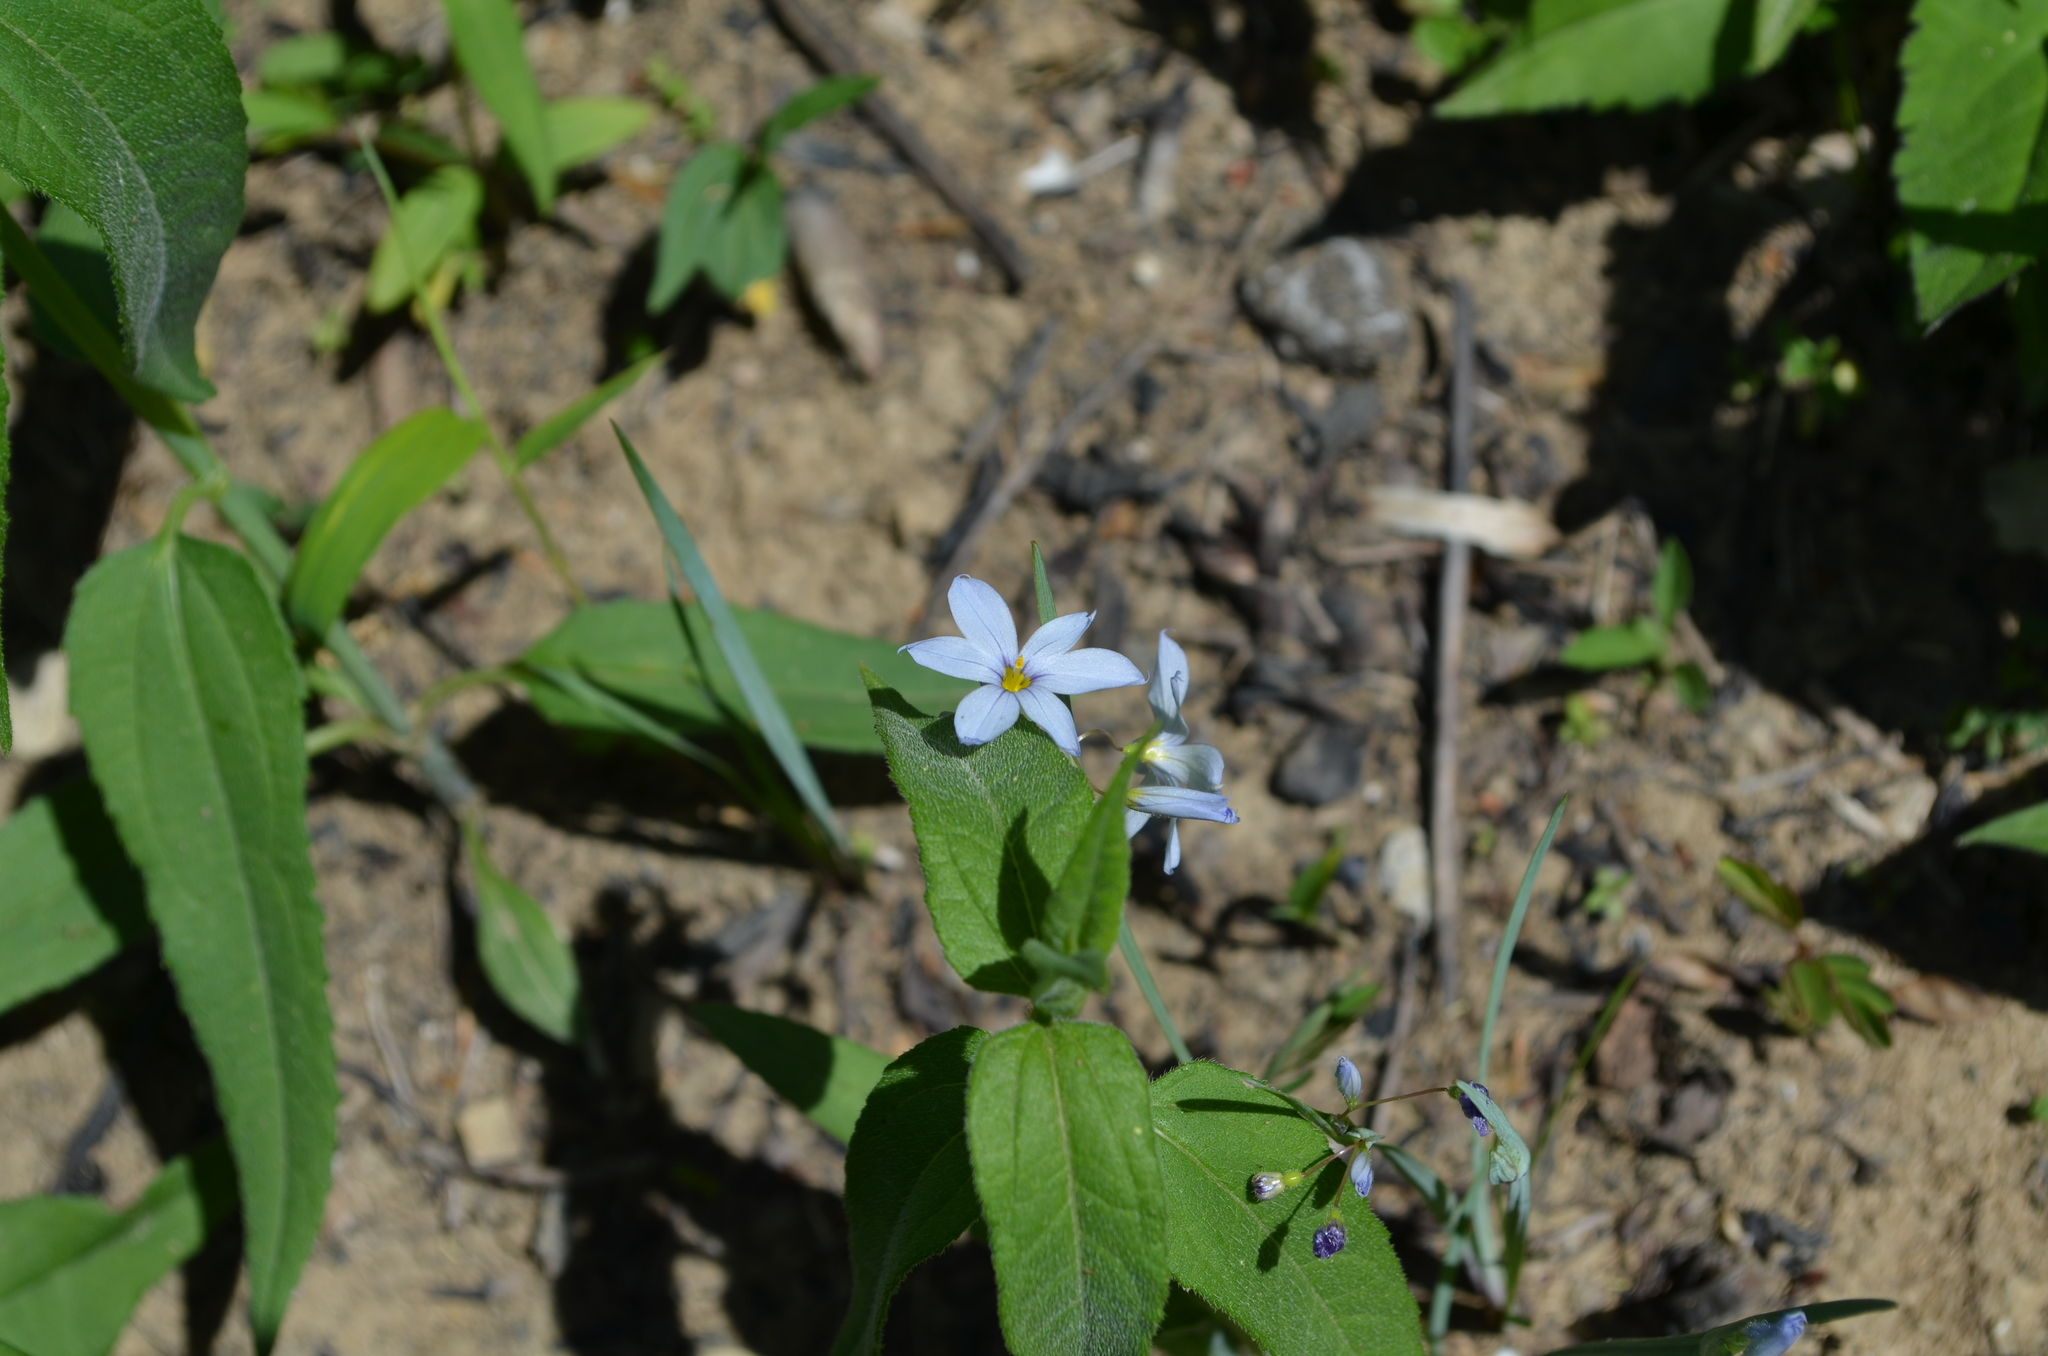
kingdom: Plantae
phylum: Tracheophyta
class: Liliopsida
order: Asparagales
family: Iridaceae
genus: Sisyrinchium
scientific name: Sisyrinchium albidum
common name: Pale blue-eyed-grass
